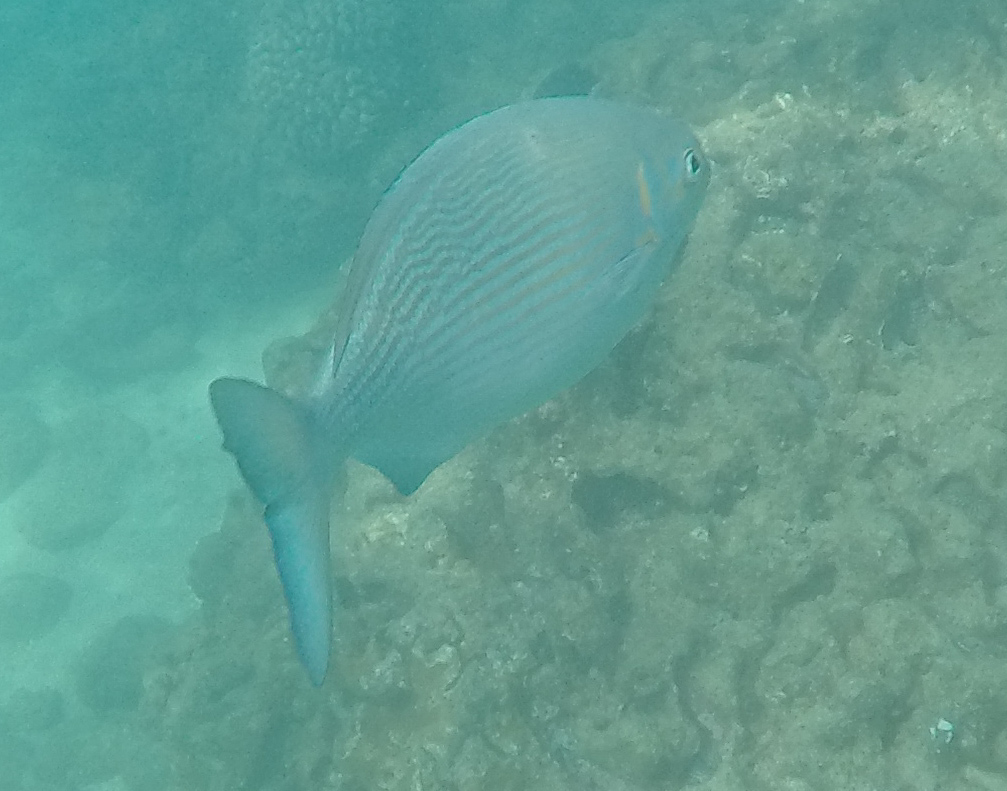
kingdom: Animalia
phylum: Chordata
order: Perciformes
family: Kyphosidae
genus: Kyphosus
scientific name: Kyphosus vaigiensis
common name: Brassy chub
